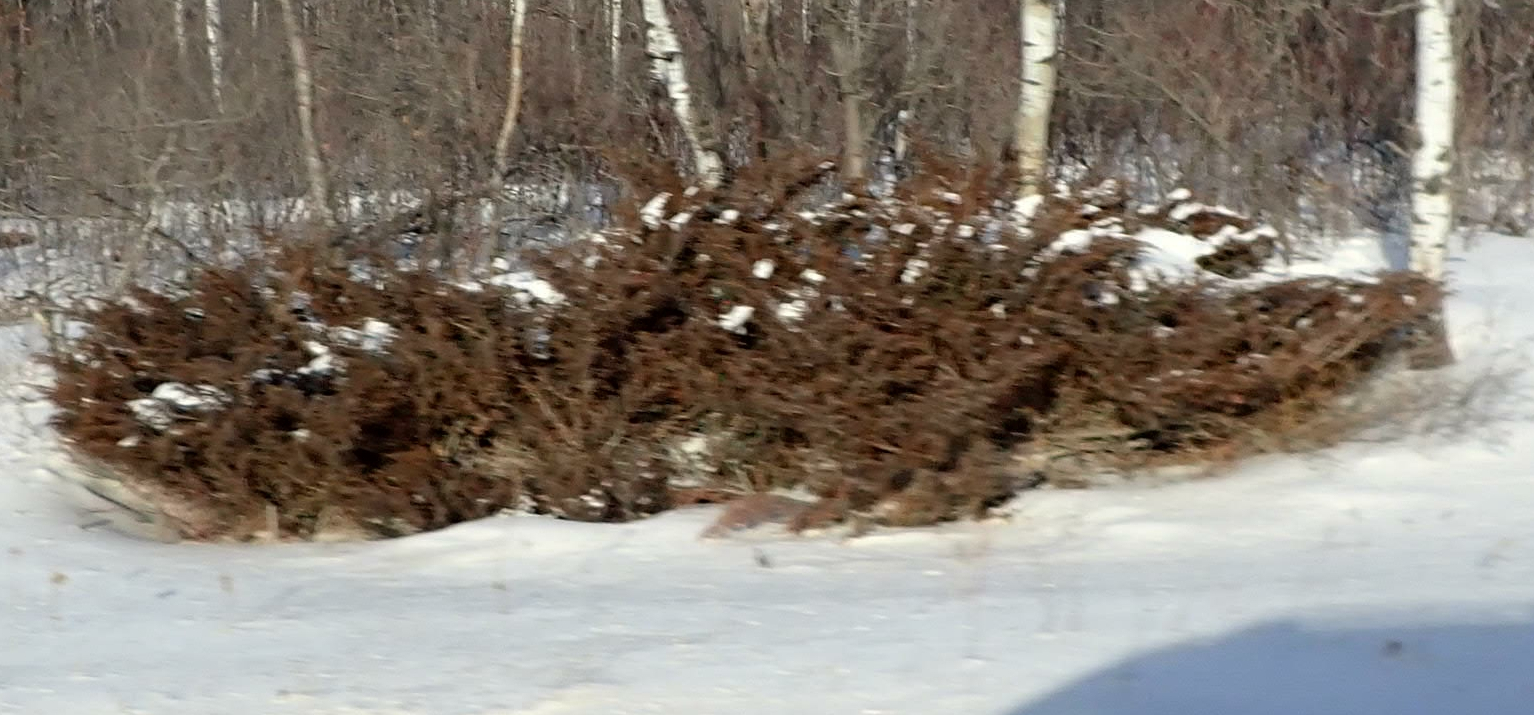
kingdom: Plantae
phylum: Tracheophyta
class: Pinopsida
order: Pinales
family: Cupressaceae
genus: Juniperus
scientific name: Juniperus communis
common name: Common juniper
